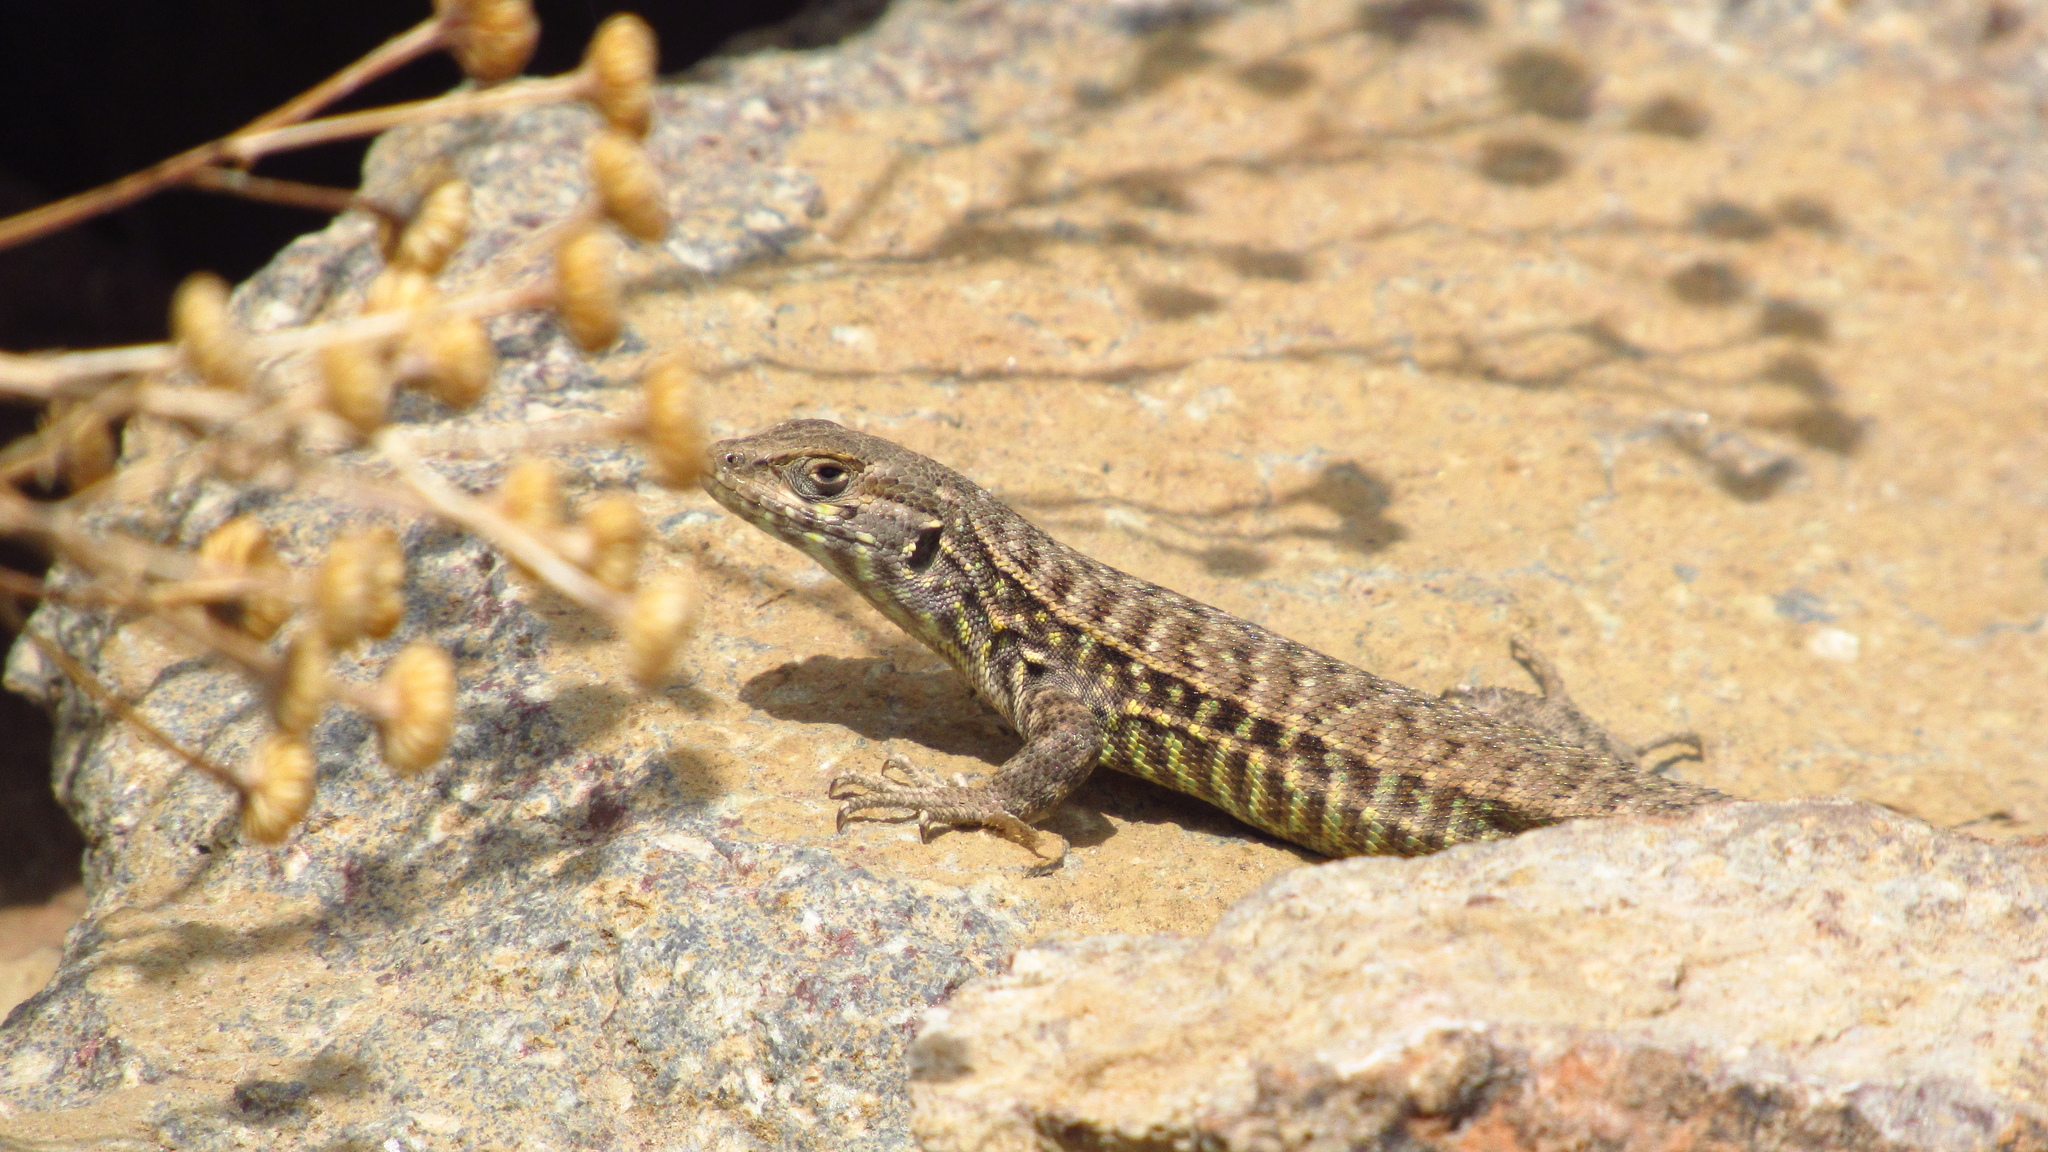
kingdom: Animalia
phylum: Chordata
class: Squamata
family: Liolaemidae
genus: Liolaemus
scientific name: Liolaemus nigroviridis
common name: Black-green tree iguana
